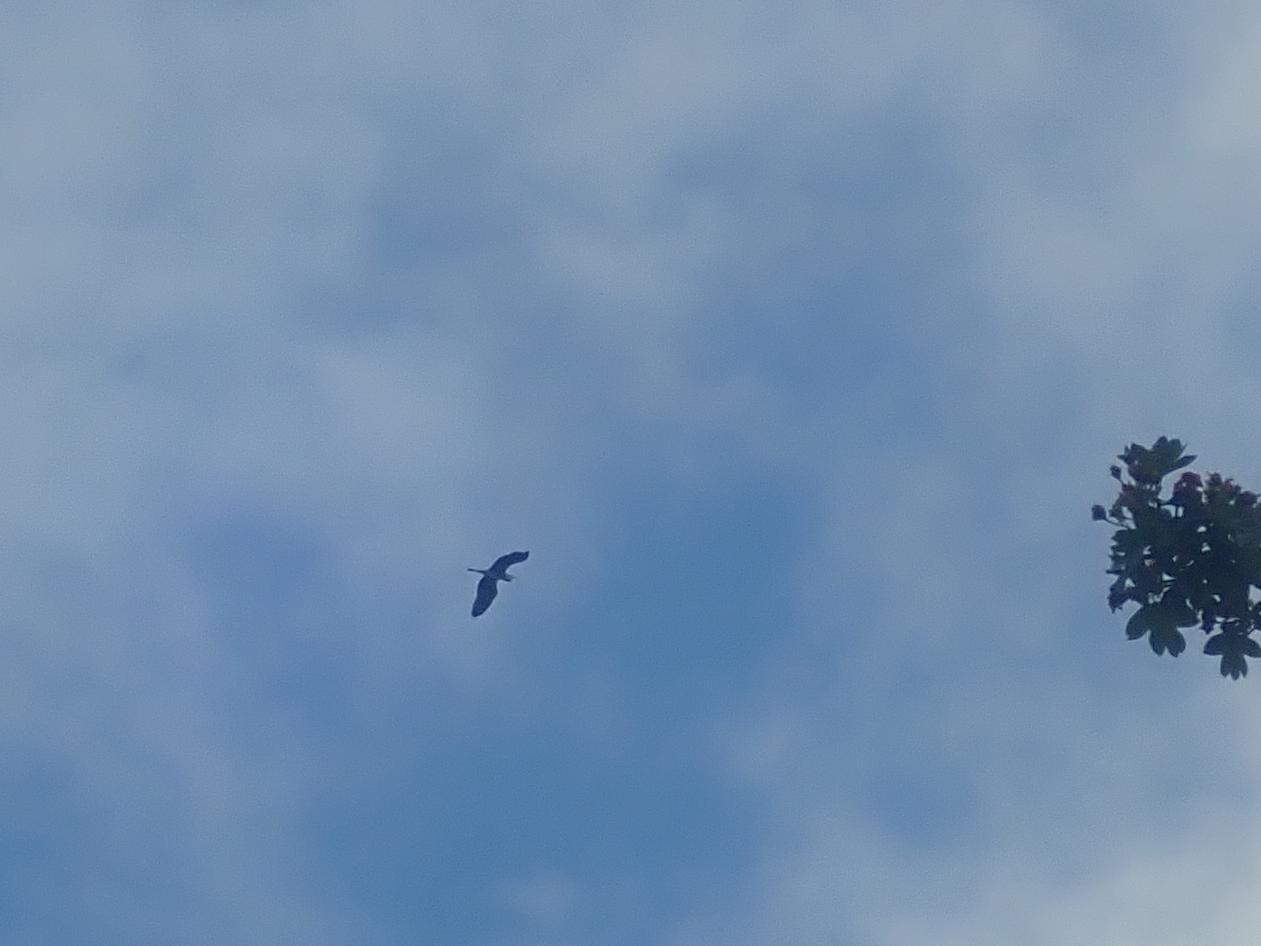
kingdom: Animalia
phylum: Chordata
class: Aves
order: Pelecaniformes
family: Ardeidae
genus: Ardea
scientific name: Ardea cinerea
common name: Grey heron
